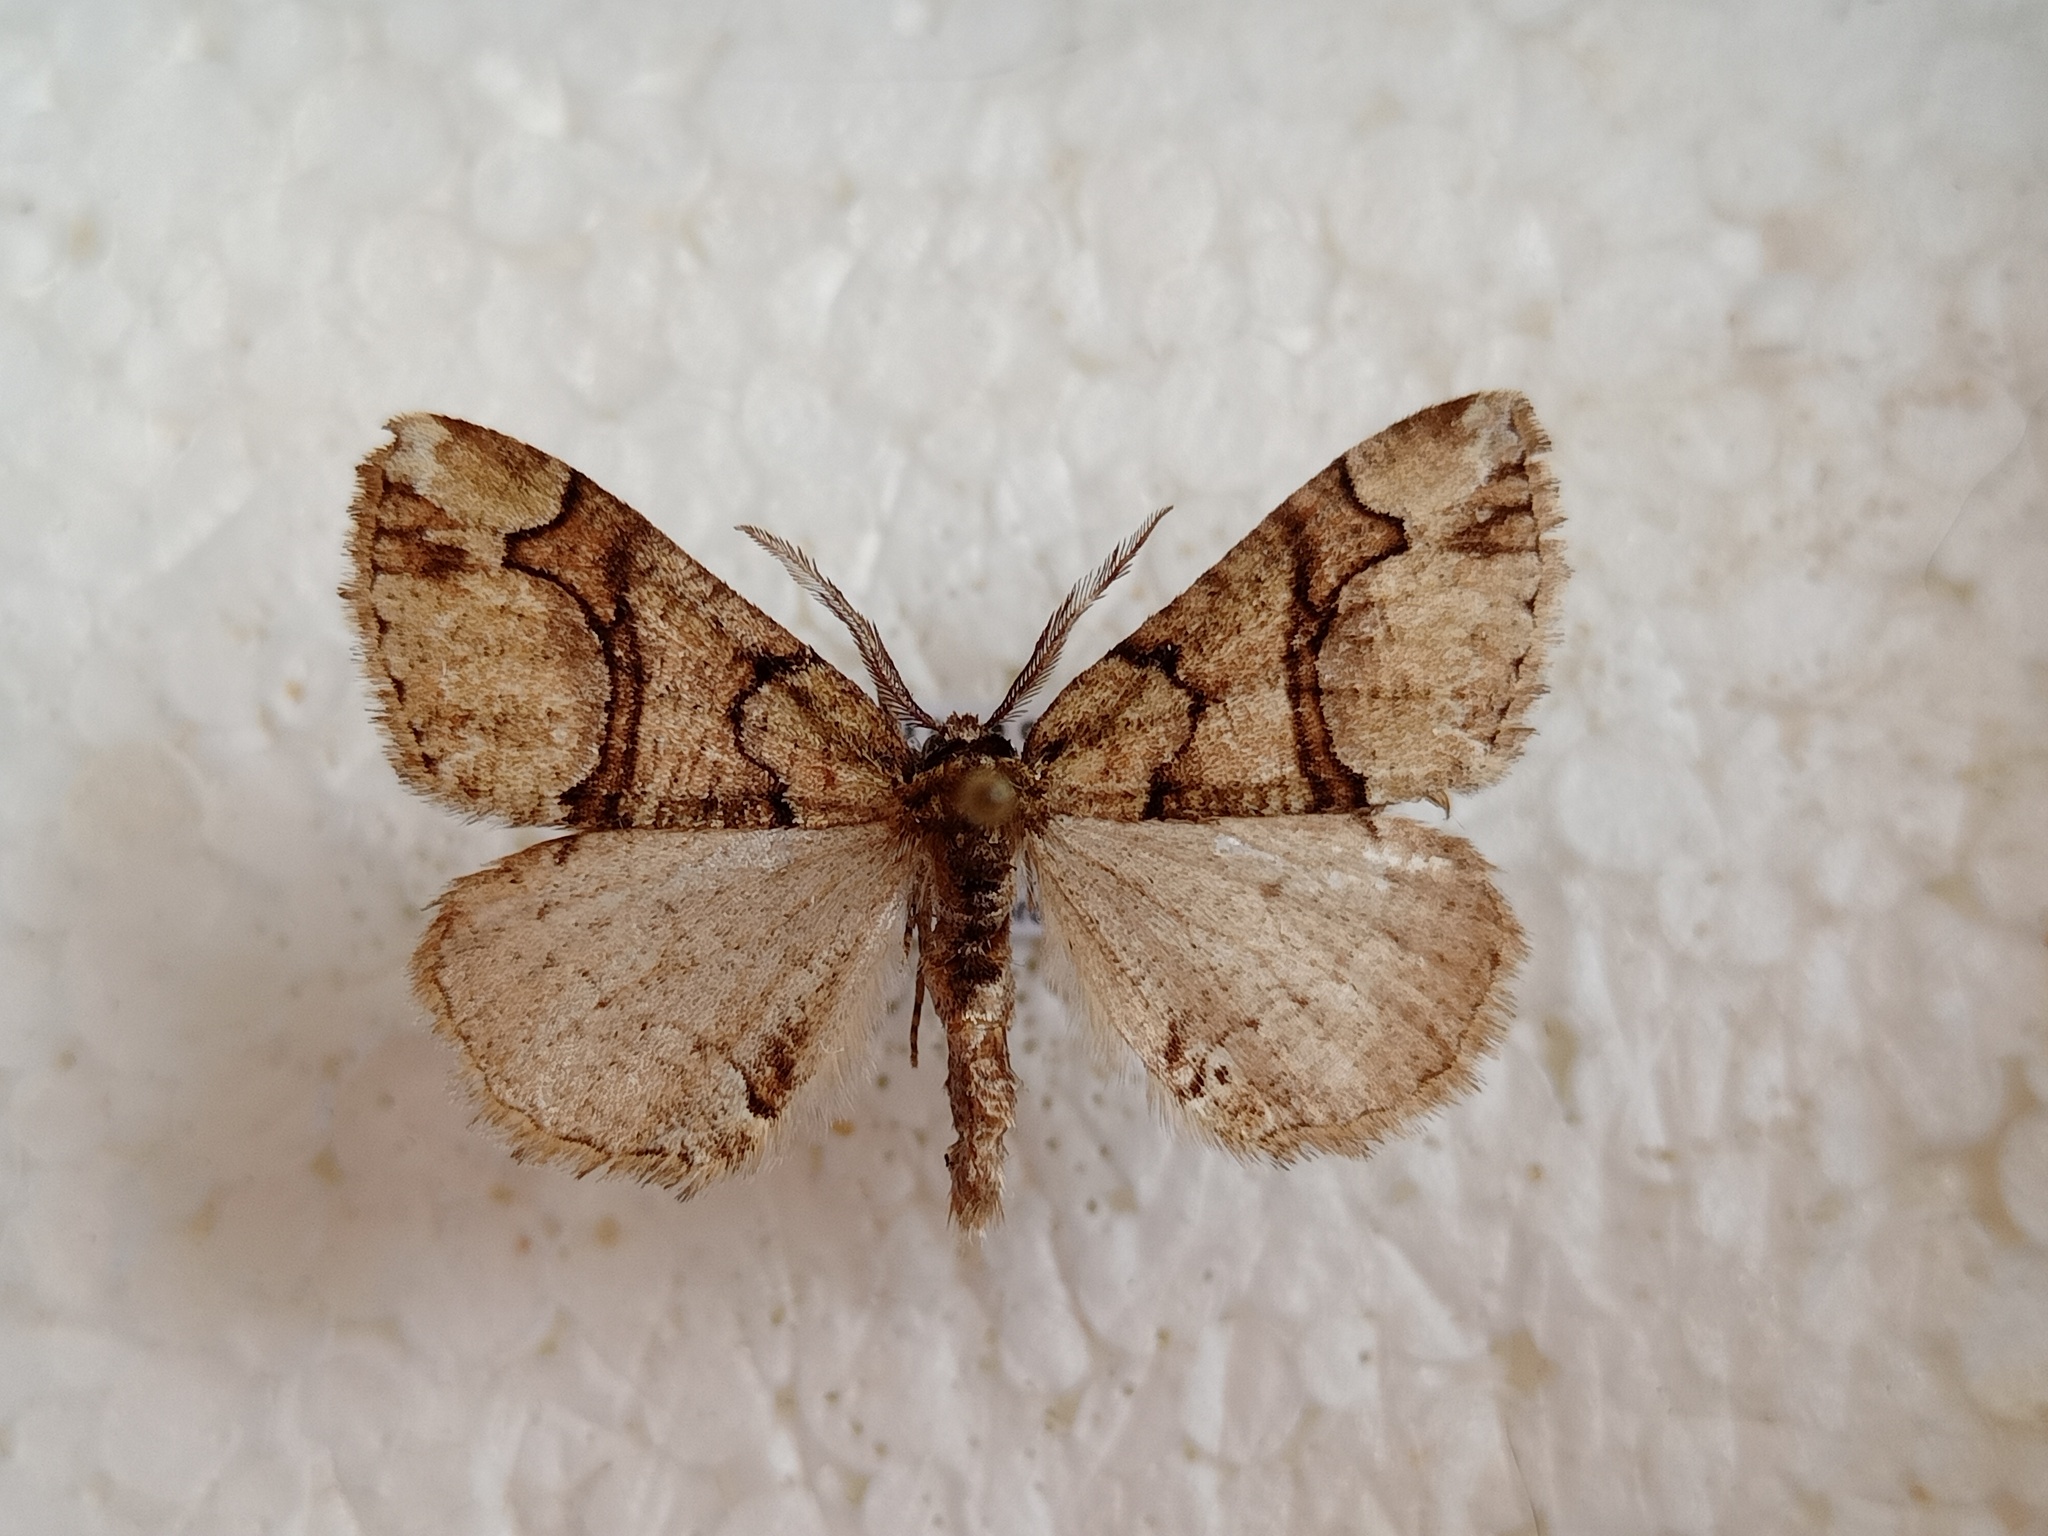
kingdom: Animalia
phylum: Arthropoda
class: Insecta
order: Lepidoptera
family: Geometridae
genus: Asovia
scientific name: Asovia maeoticaria
